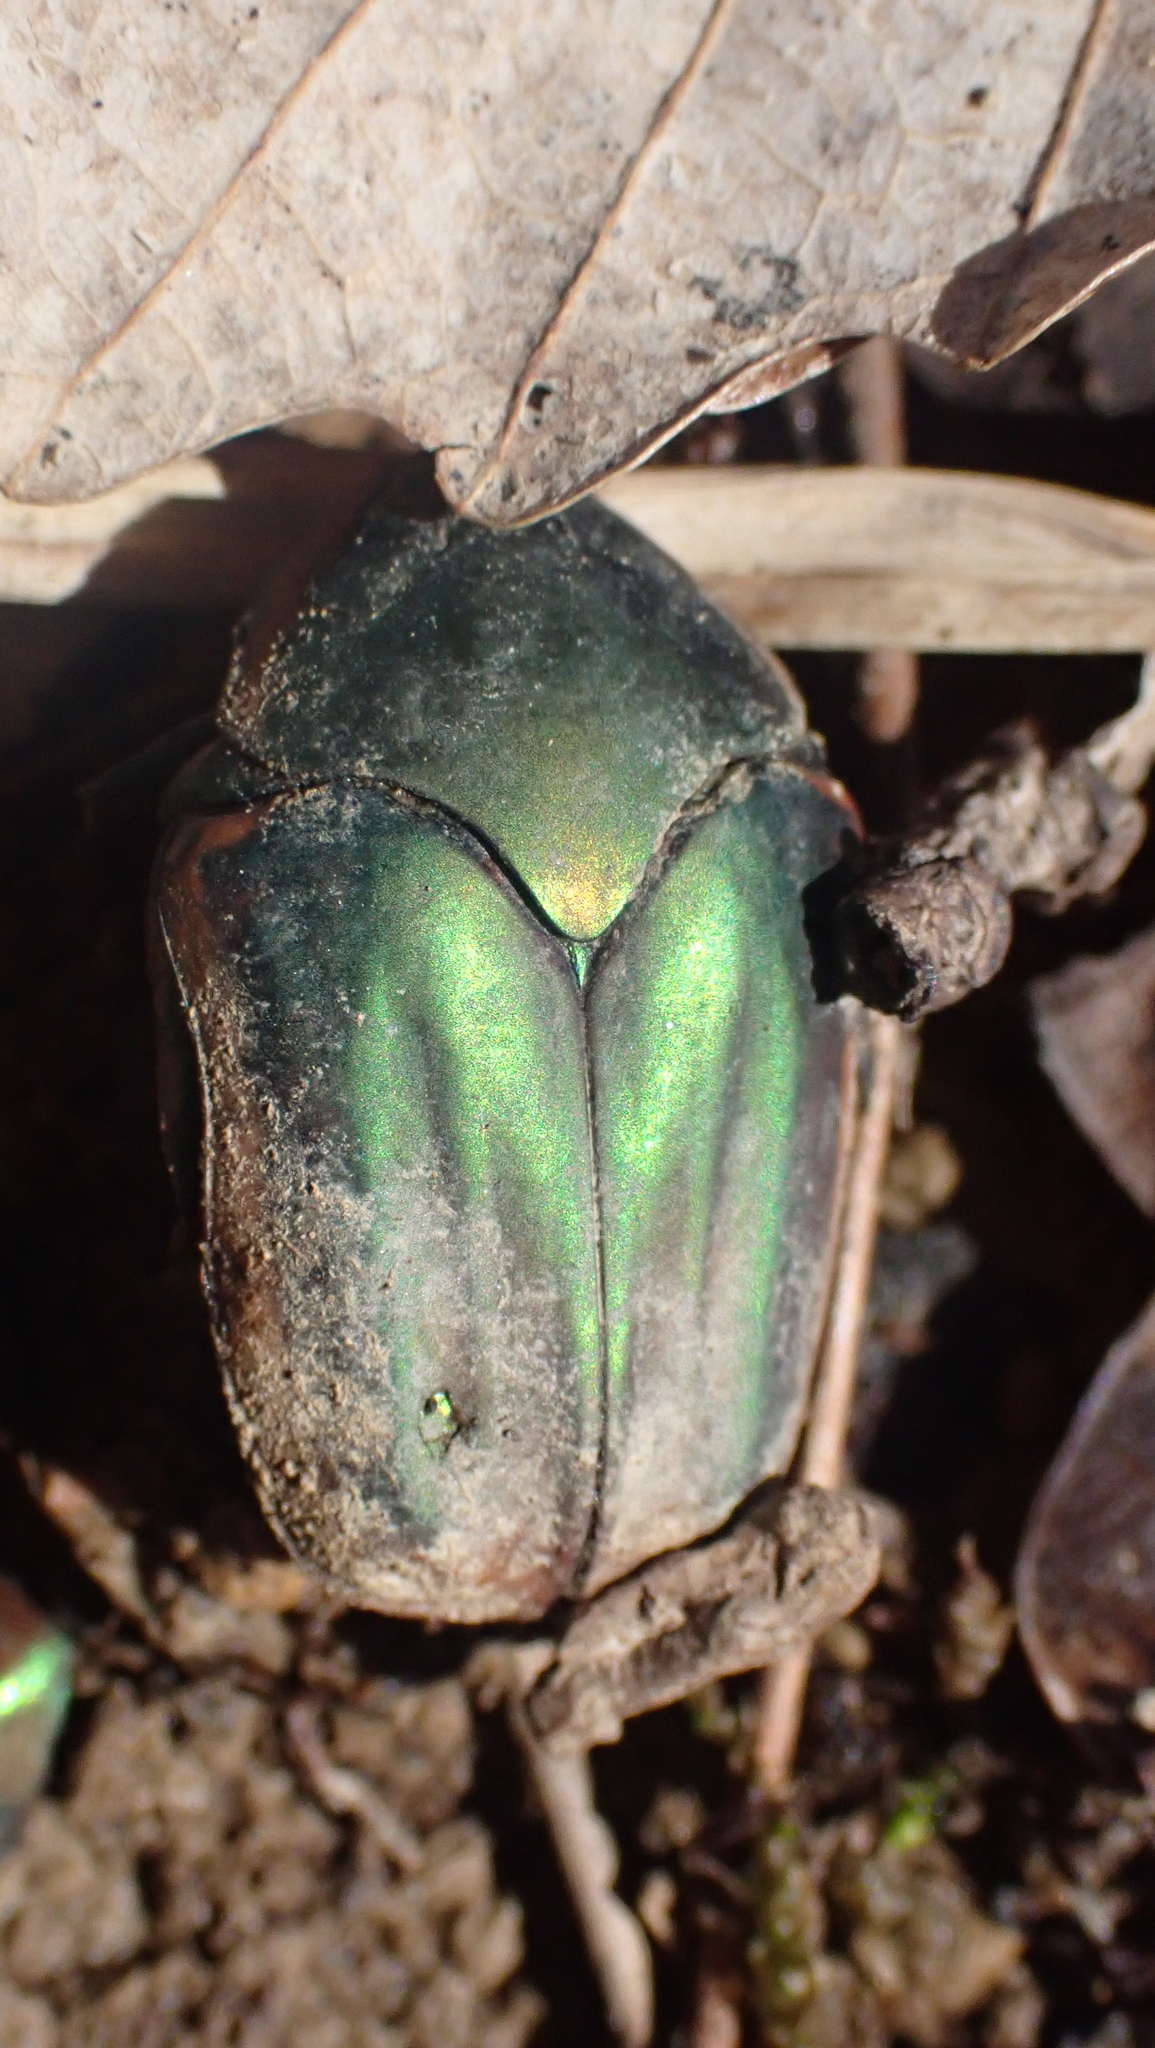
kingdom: Animalia
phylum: Arthropoda
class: Insecta
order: Coleoptera
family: Scarabaeidae
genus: Cotinis
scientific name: Cotinis nitida
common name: Common green june beetle
